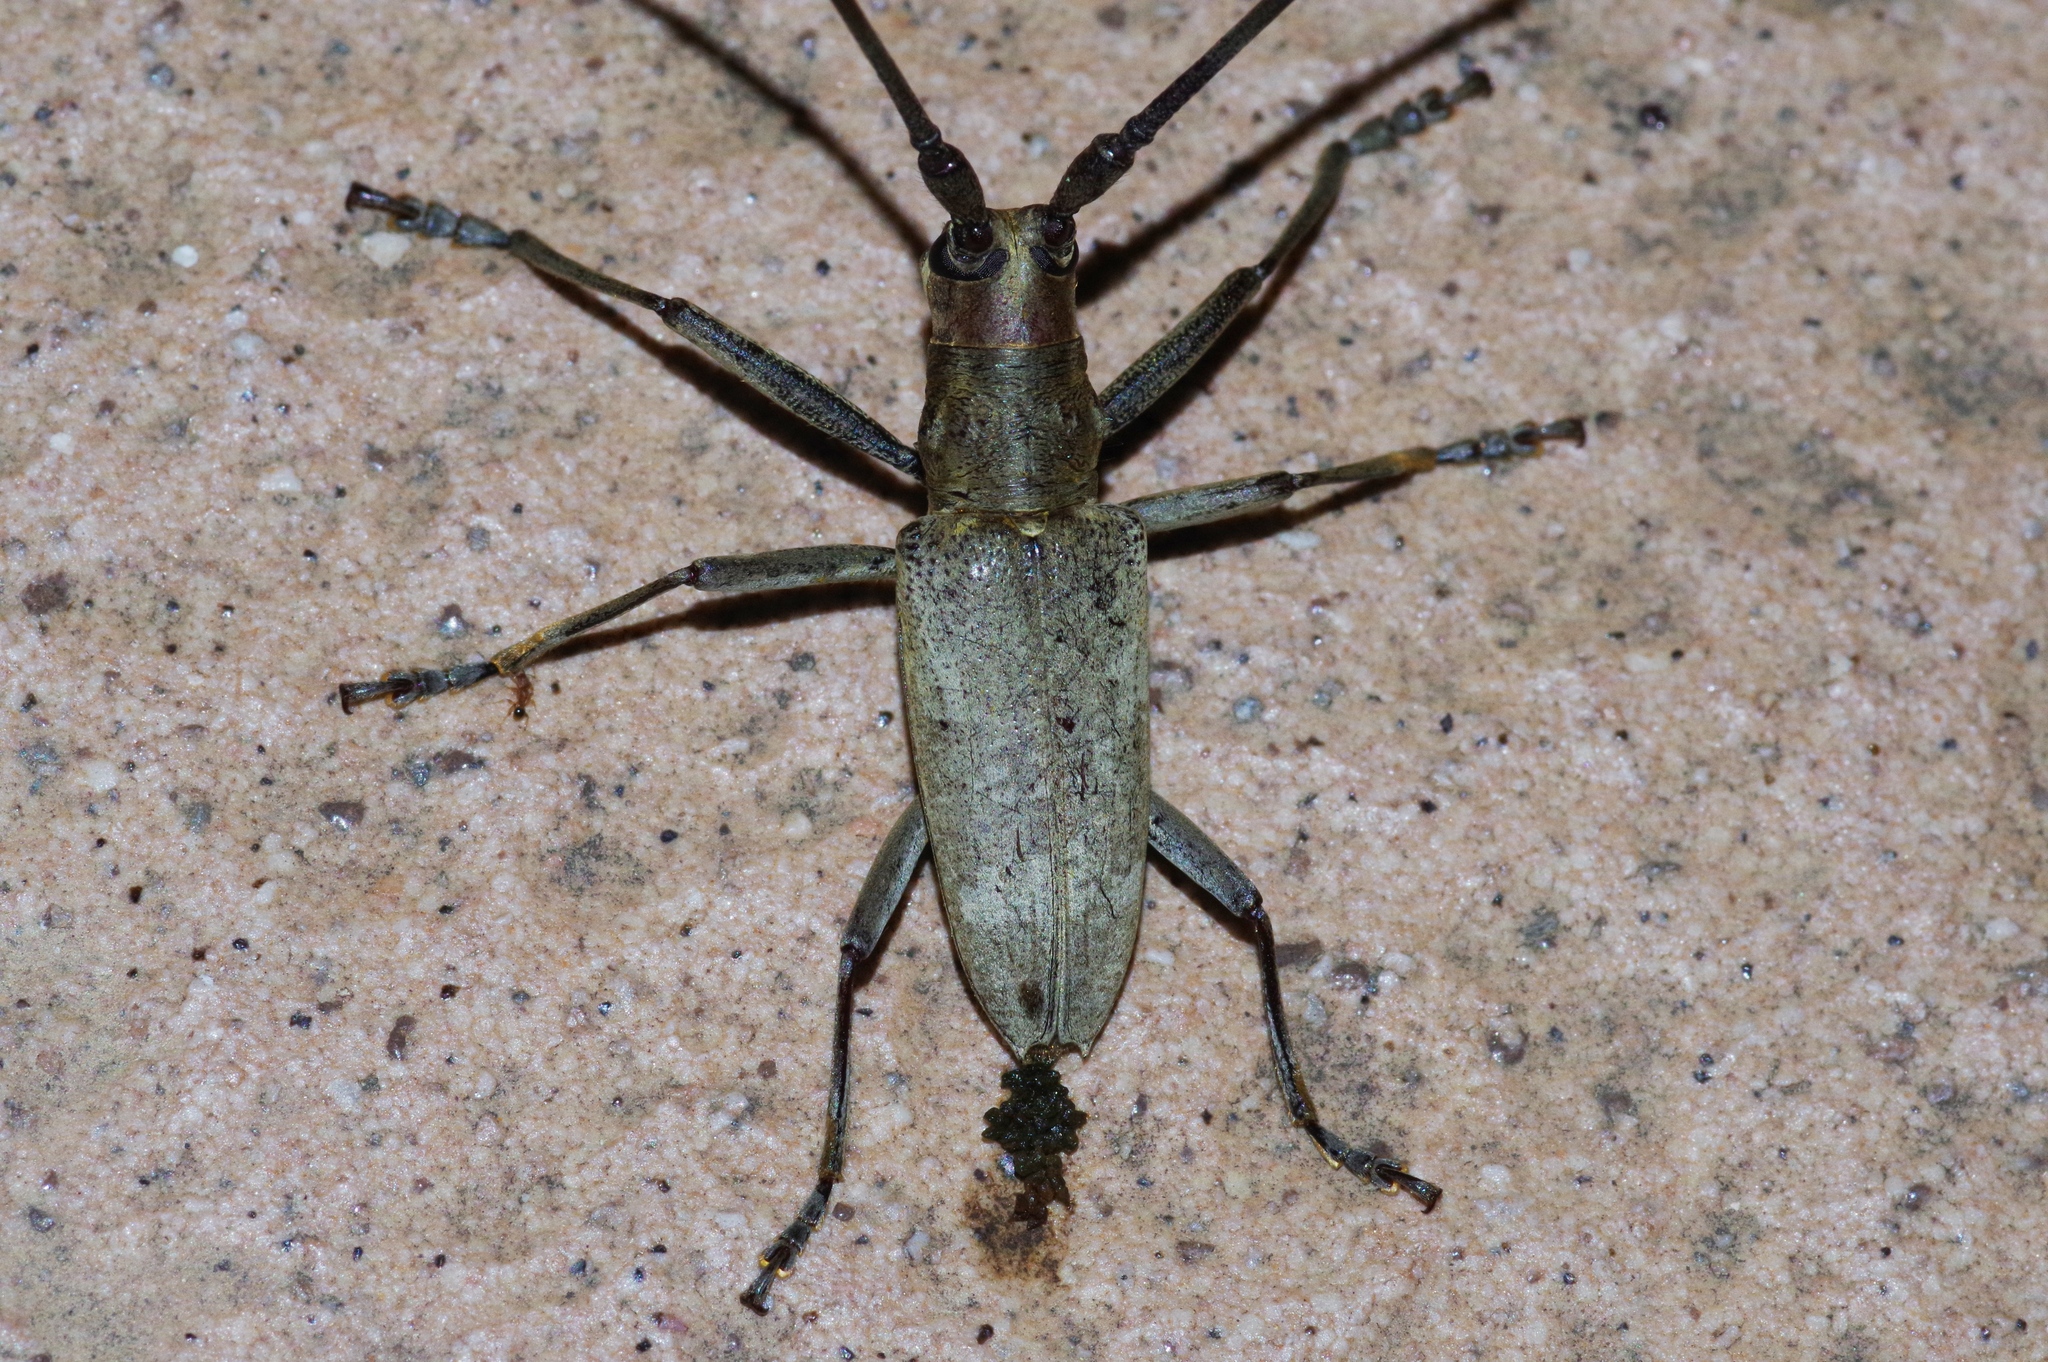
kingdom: Animalia
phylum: Arthropoda
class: Insecta
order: Coleoptera
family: Cerambycidae
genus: Psacothea
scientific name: Psacothea hilaris
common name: Yellow-spotted longicorn beetle
